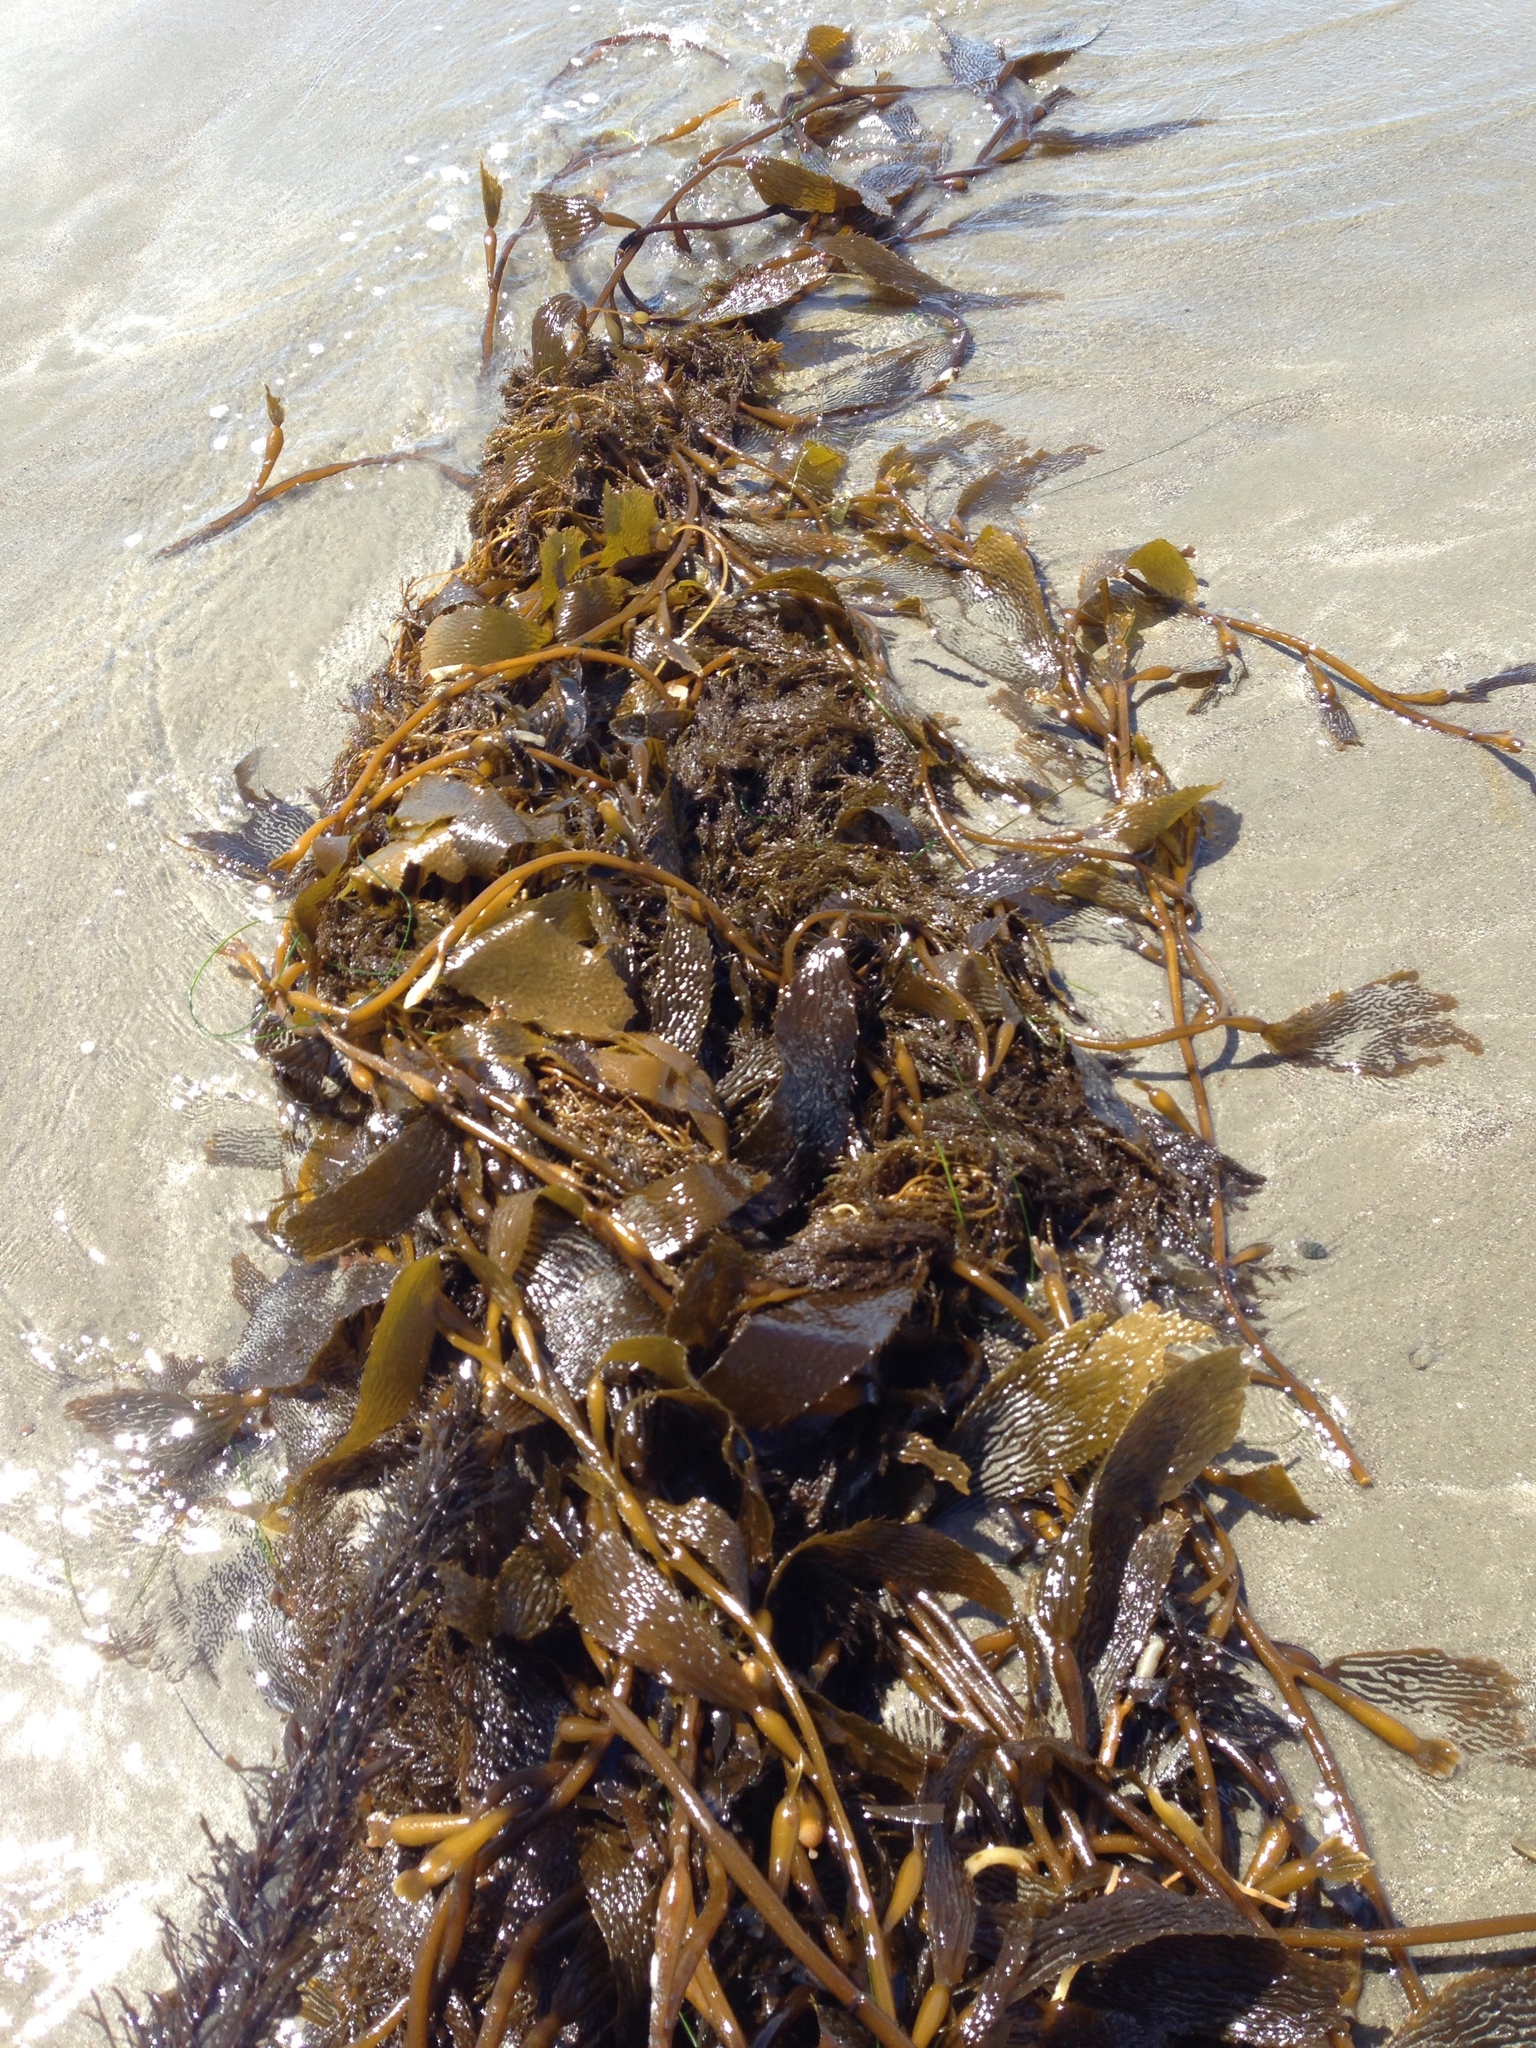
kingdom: Chromista
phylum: Ochrophyta
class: Phaeophyceae
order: Laminariales
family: Laminariaceae
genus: Macrocystis
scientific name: Macrocystis pyrifera
